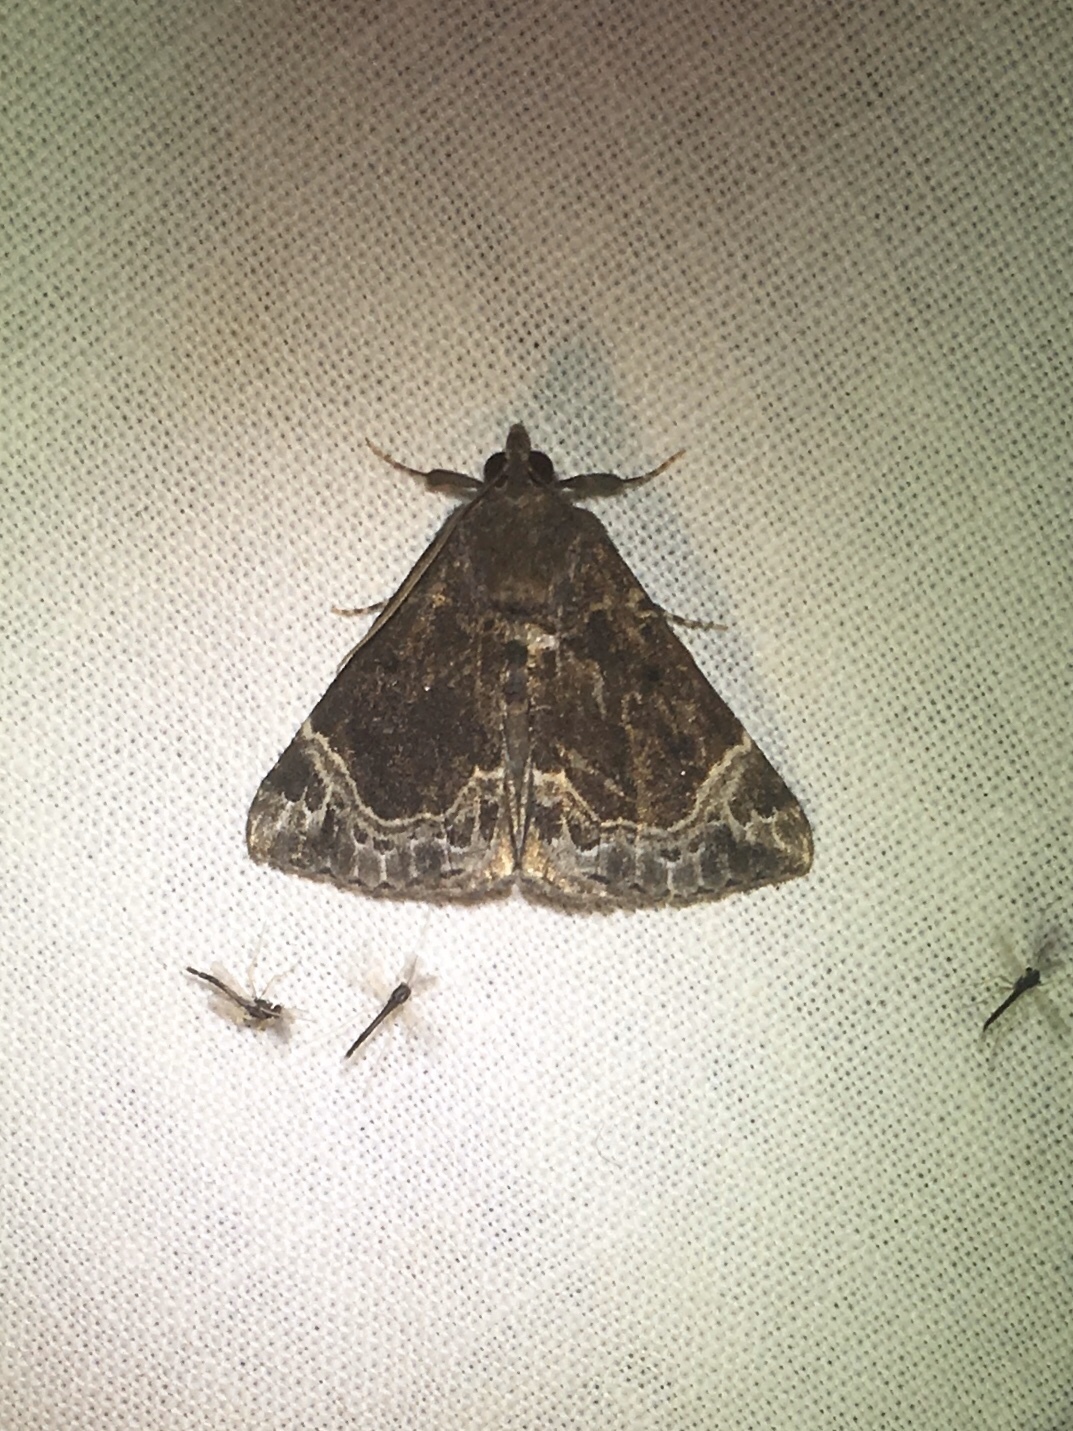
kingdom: Animalia
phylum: Arthropoda
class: Insecta
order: Lepidoptera
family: Erebidae
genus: Hypena
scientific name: Hypena abalienalis
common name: White-lined snout
